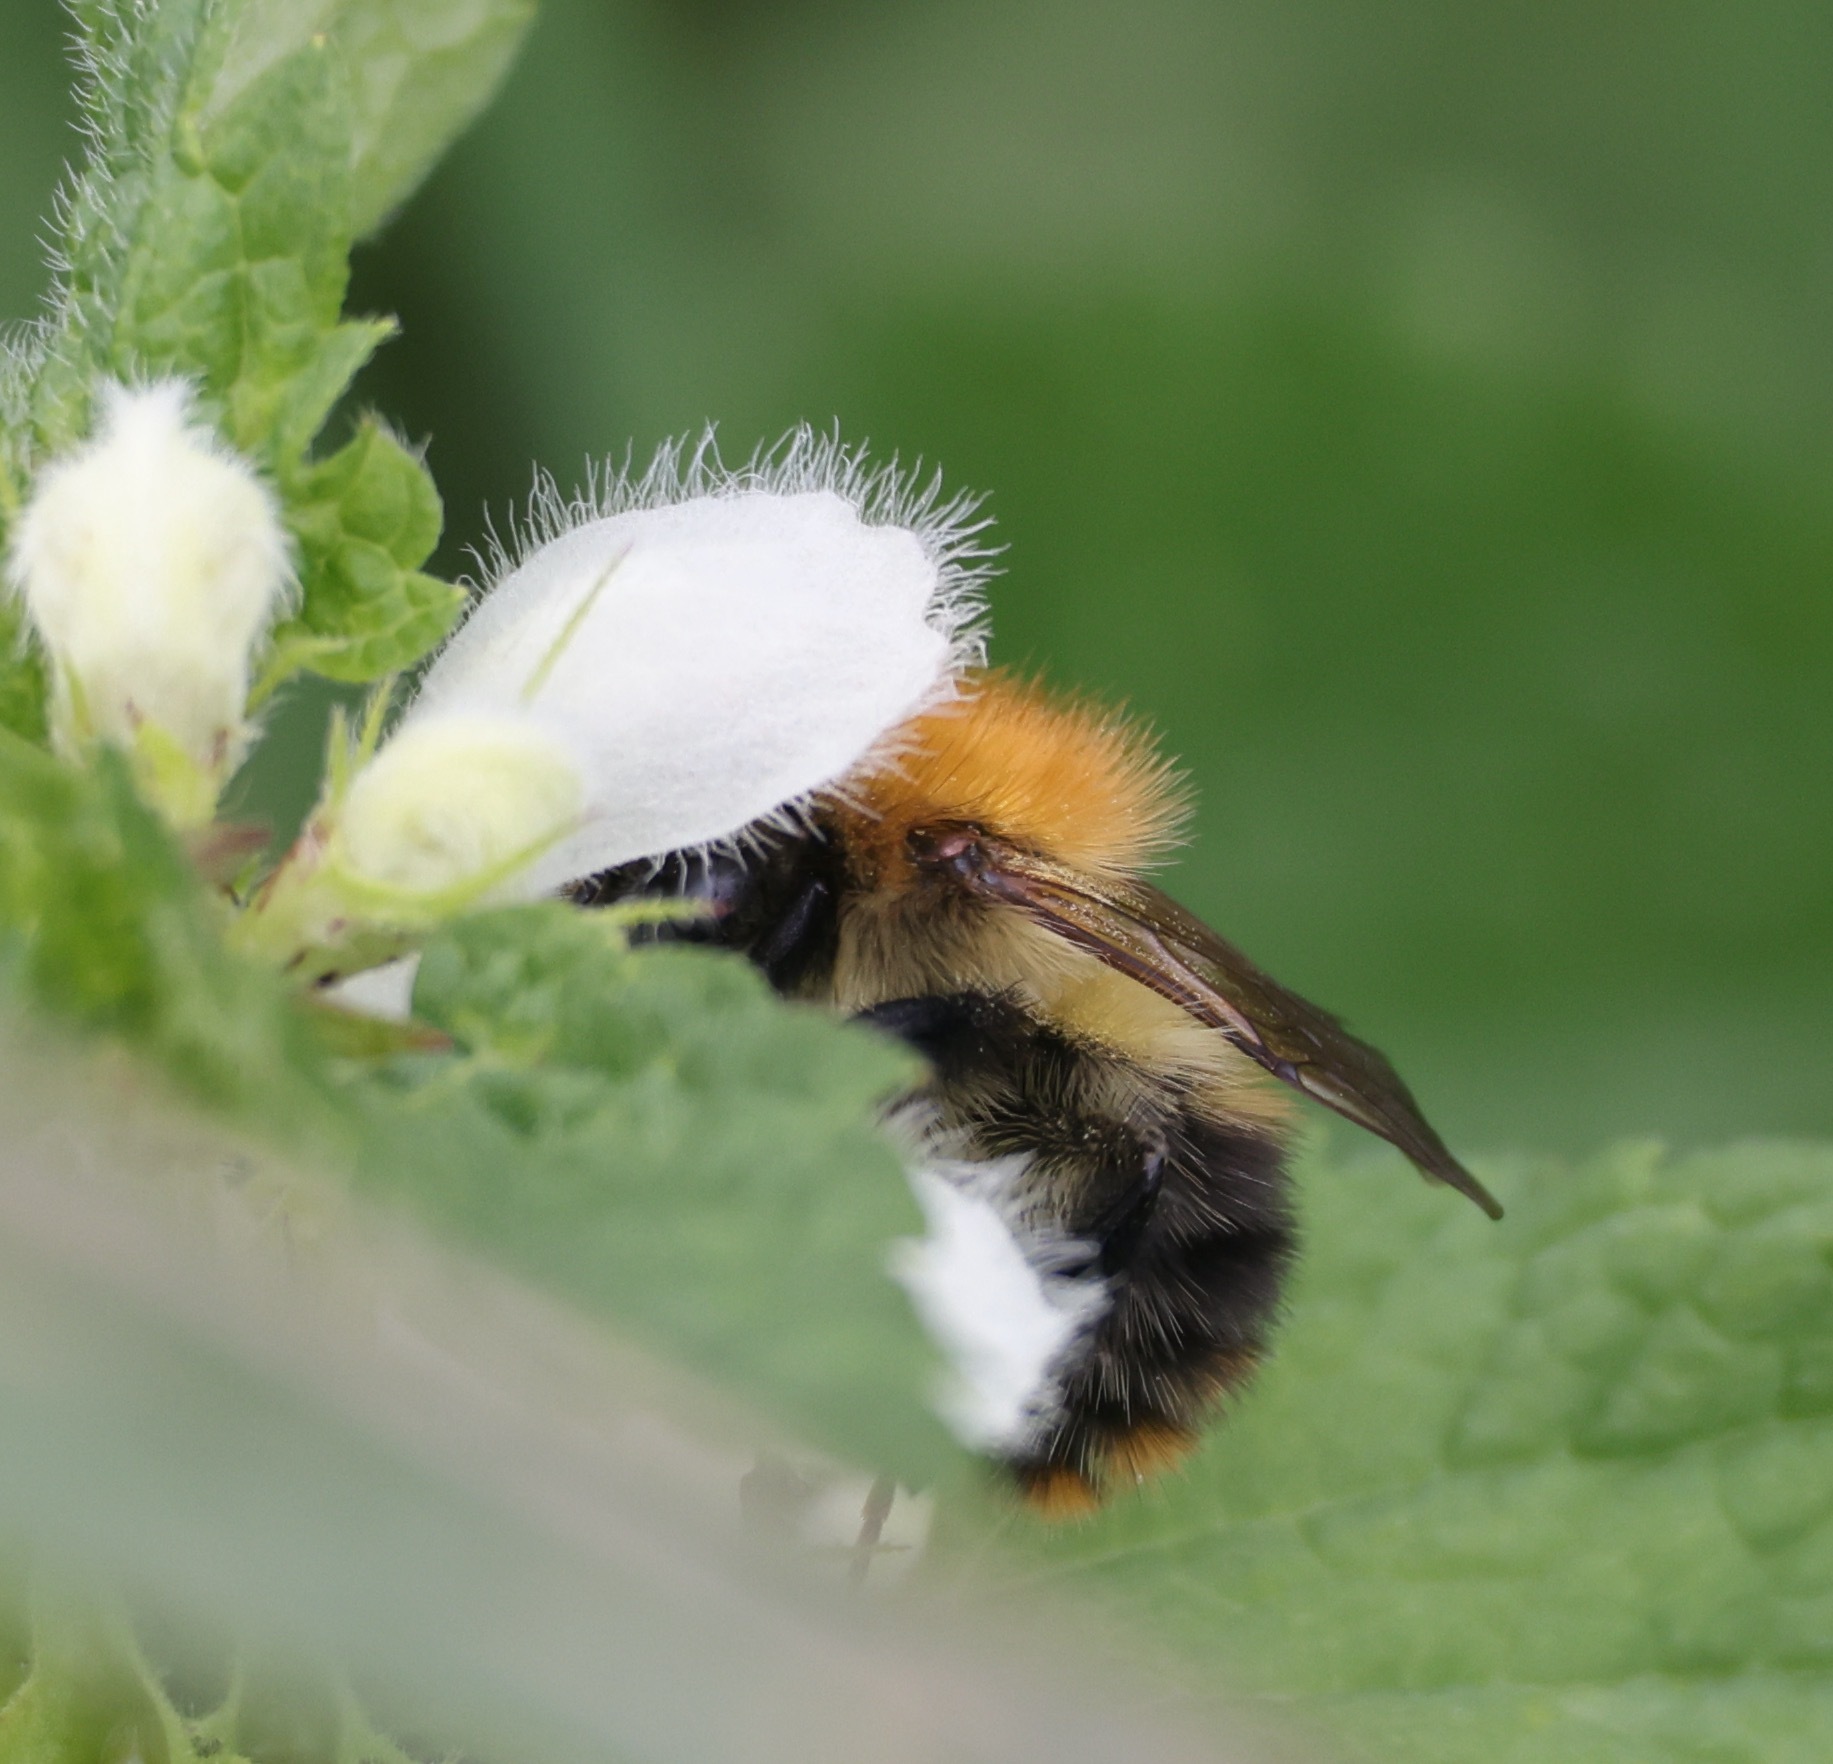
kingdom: Animalia
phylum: Arthropoda
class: Insecta
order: Hymenoptera
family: Apidae
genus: Bombus
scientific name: Bombus pascuorum
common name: Common carder bee
